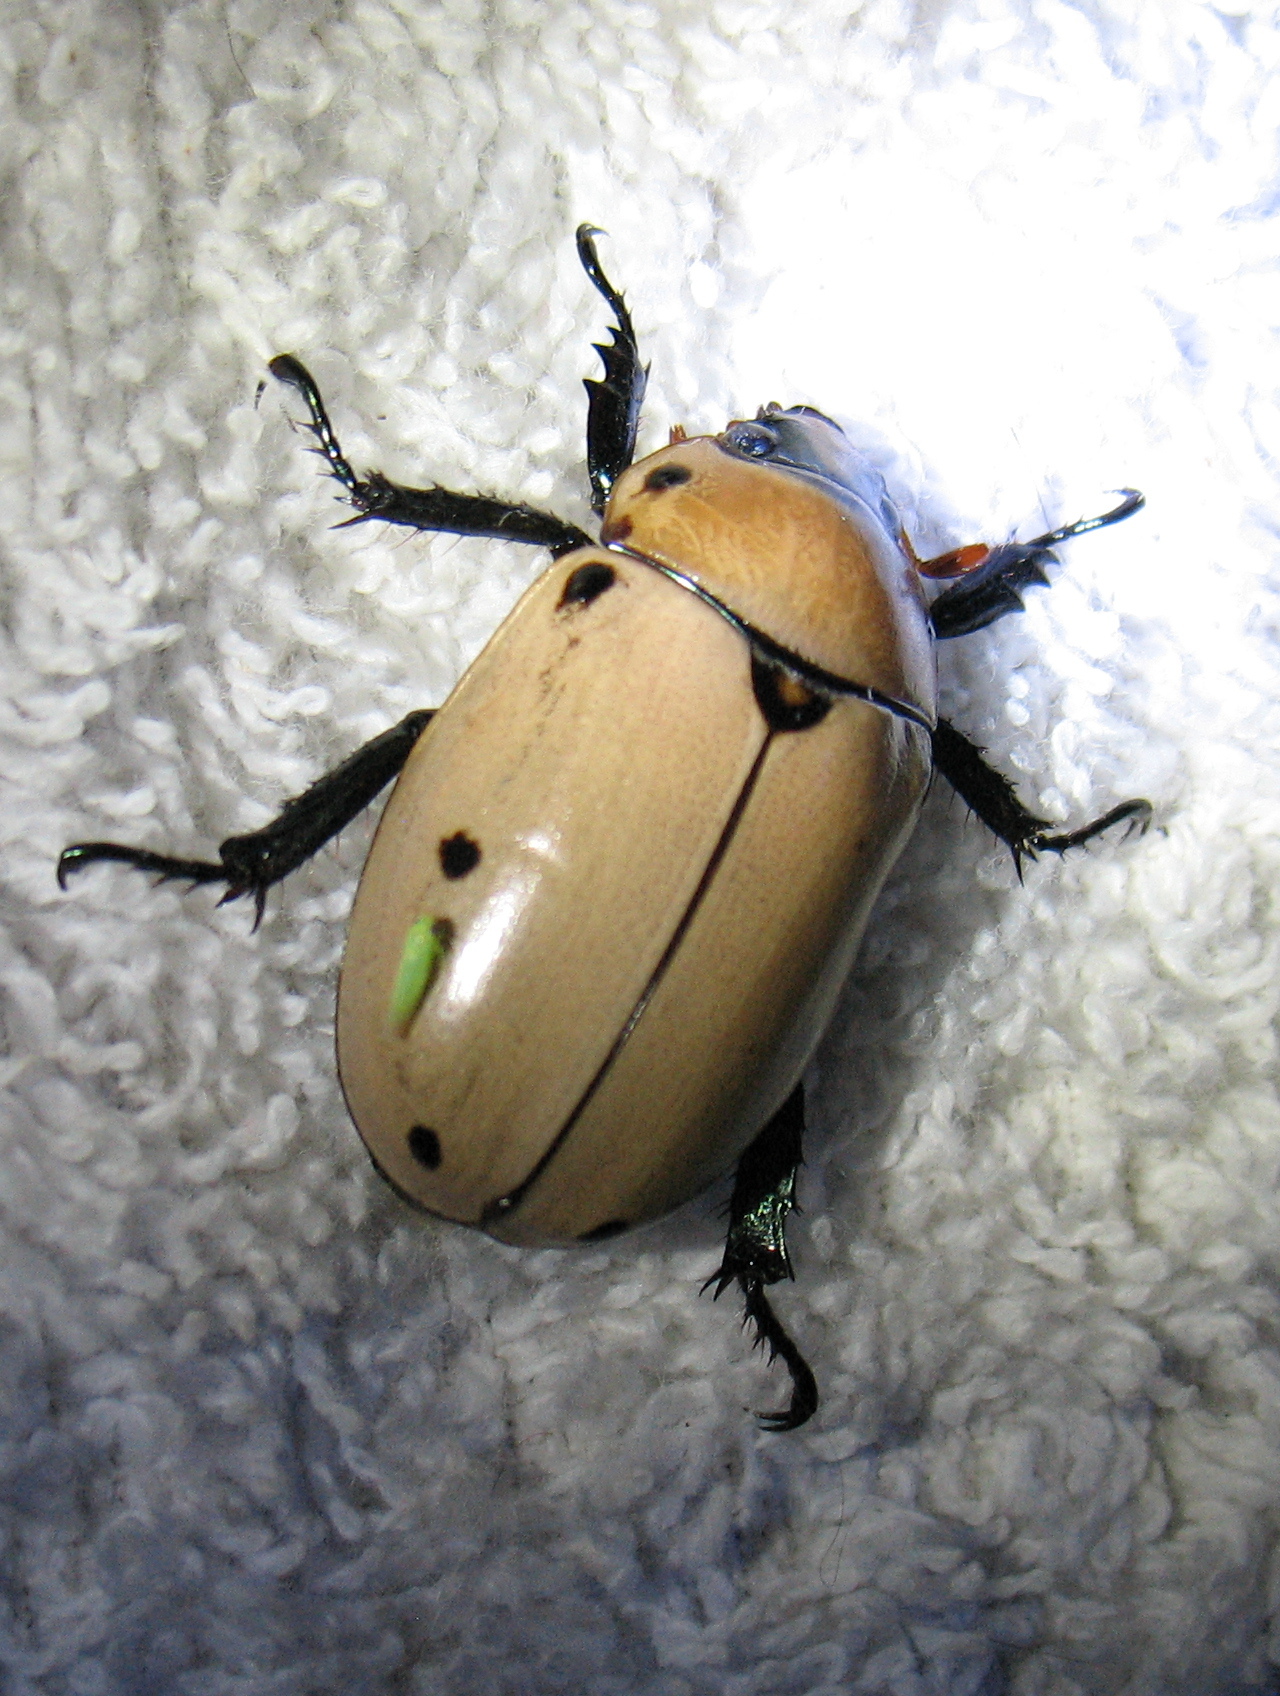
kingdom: Animalia
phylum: Arthropoda
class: Insecta
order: Coleoptera
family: Scarabaeidae
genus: Pelidnota
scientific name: Pelidnota punctata
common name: Grapevine beetle
